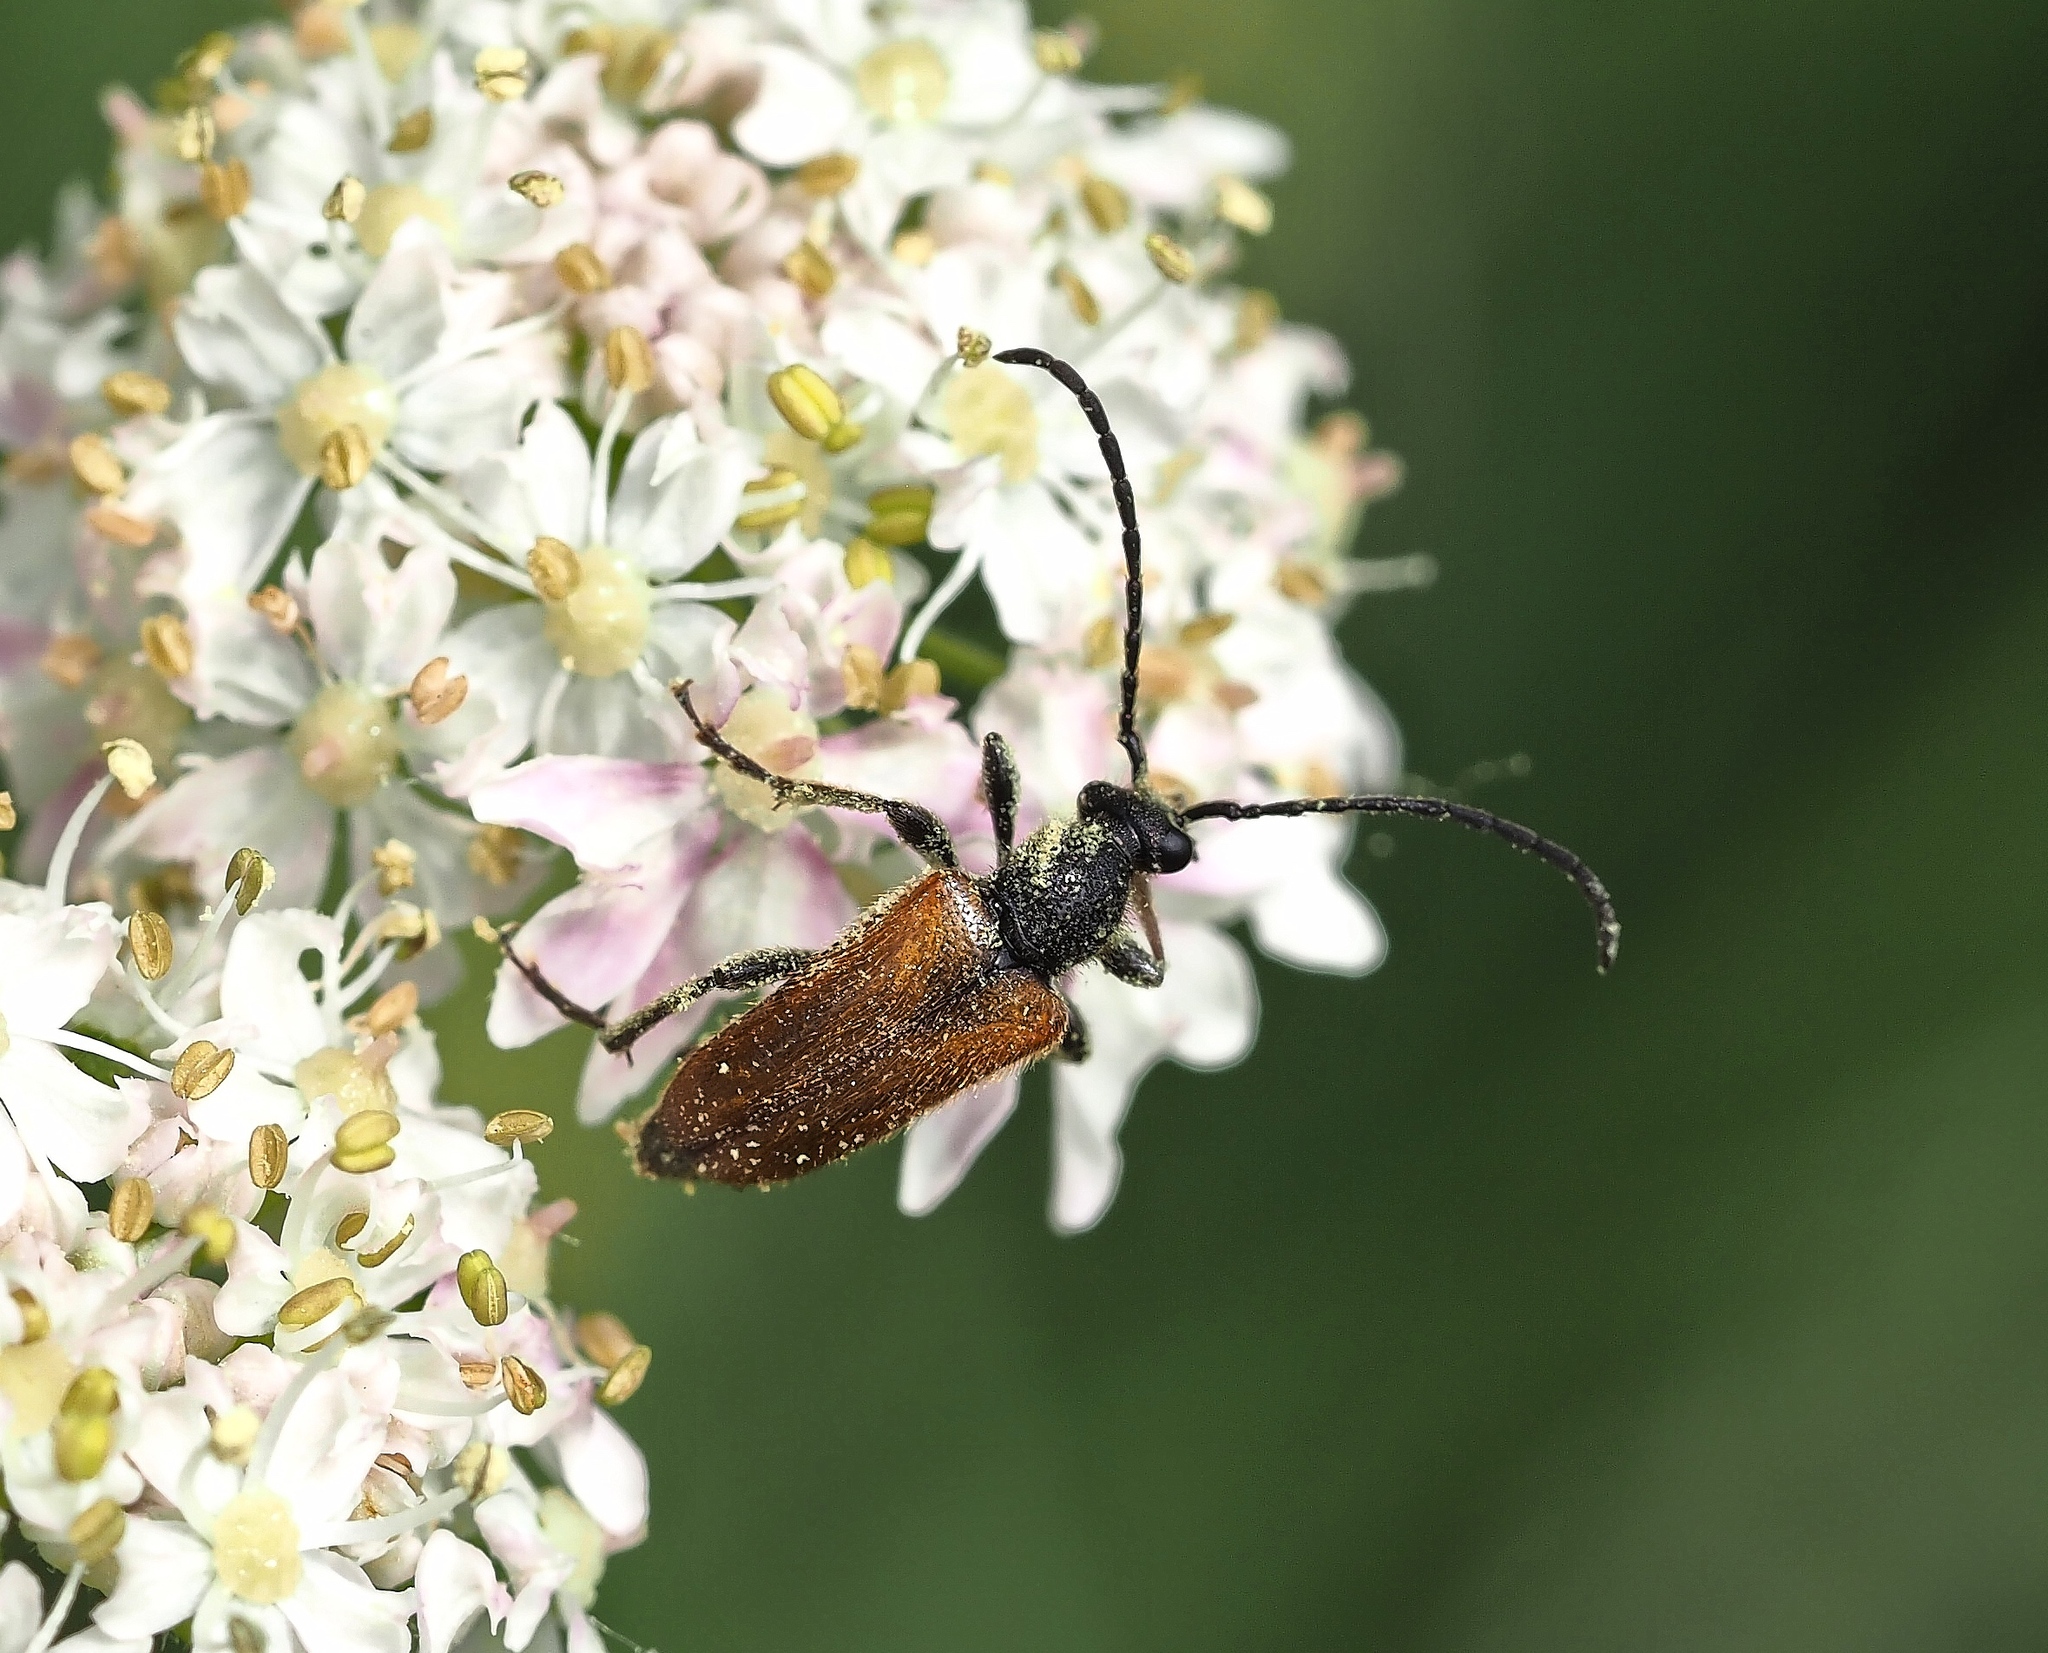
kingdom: Animalia
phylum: Arthropoda
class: Insecta
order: Coleoptera
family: Cerambycidae
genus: Pseudovadonia
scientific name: Pseudovadonia livida
